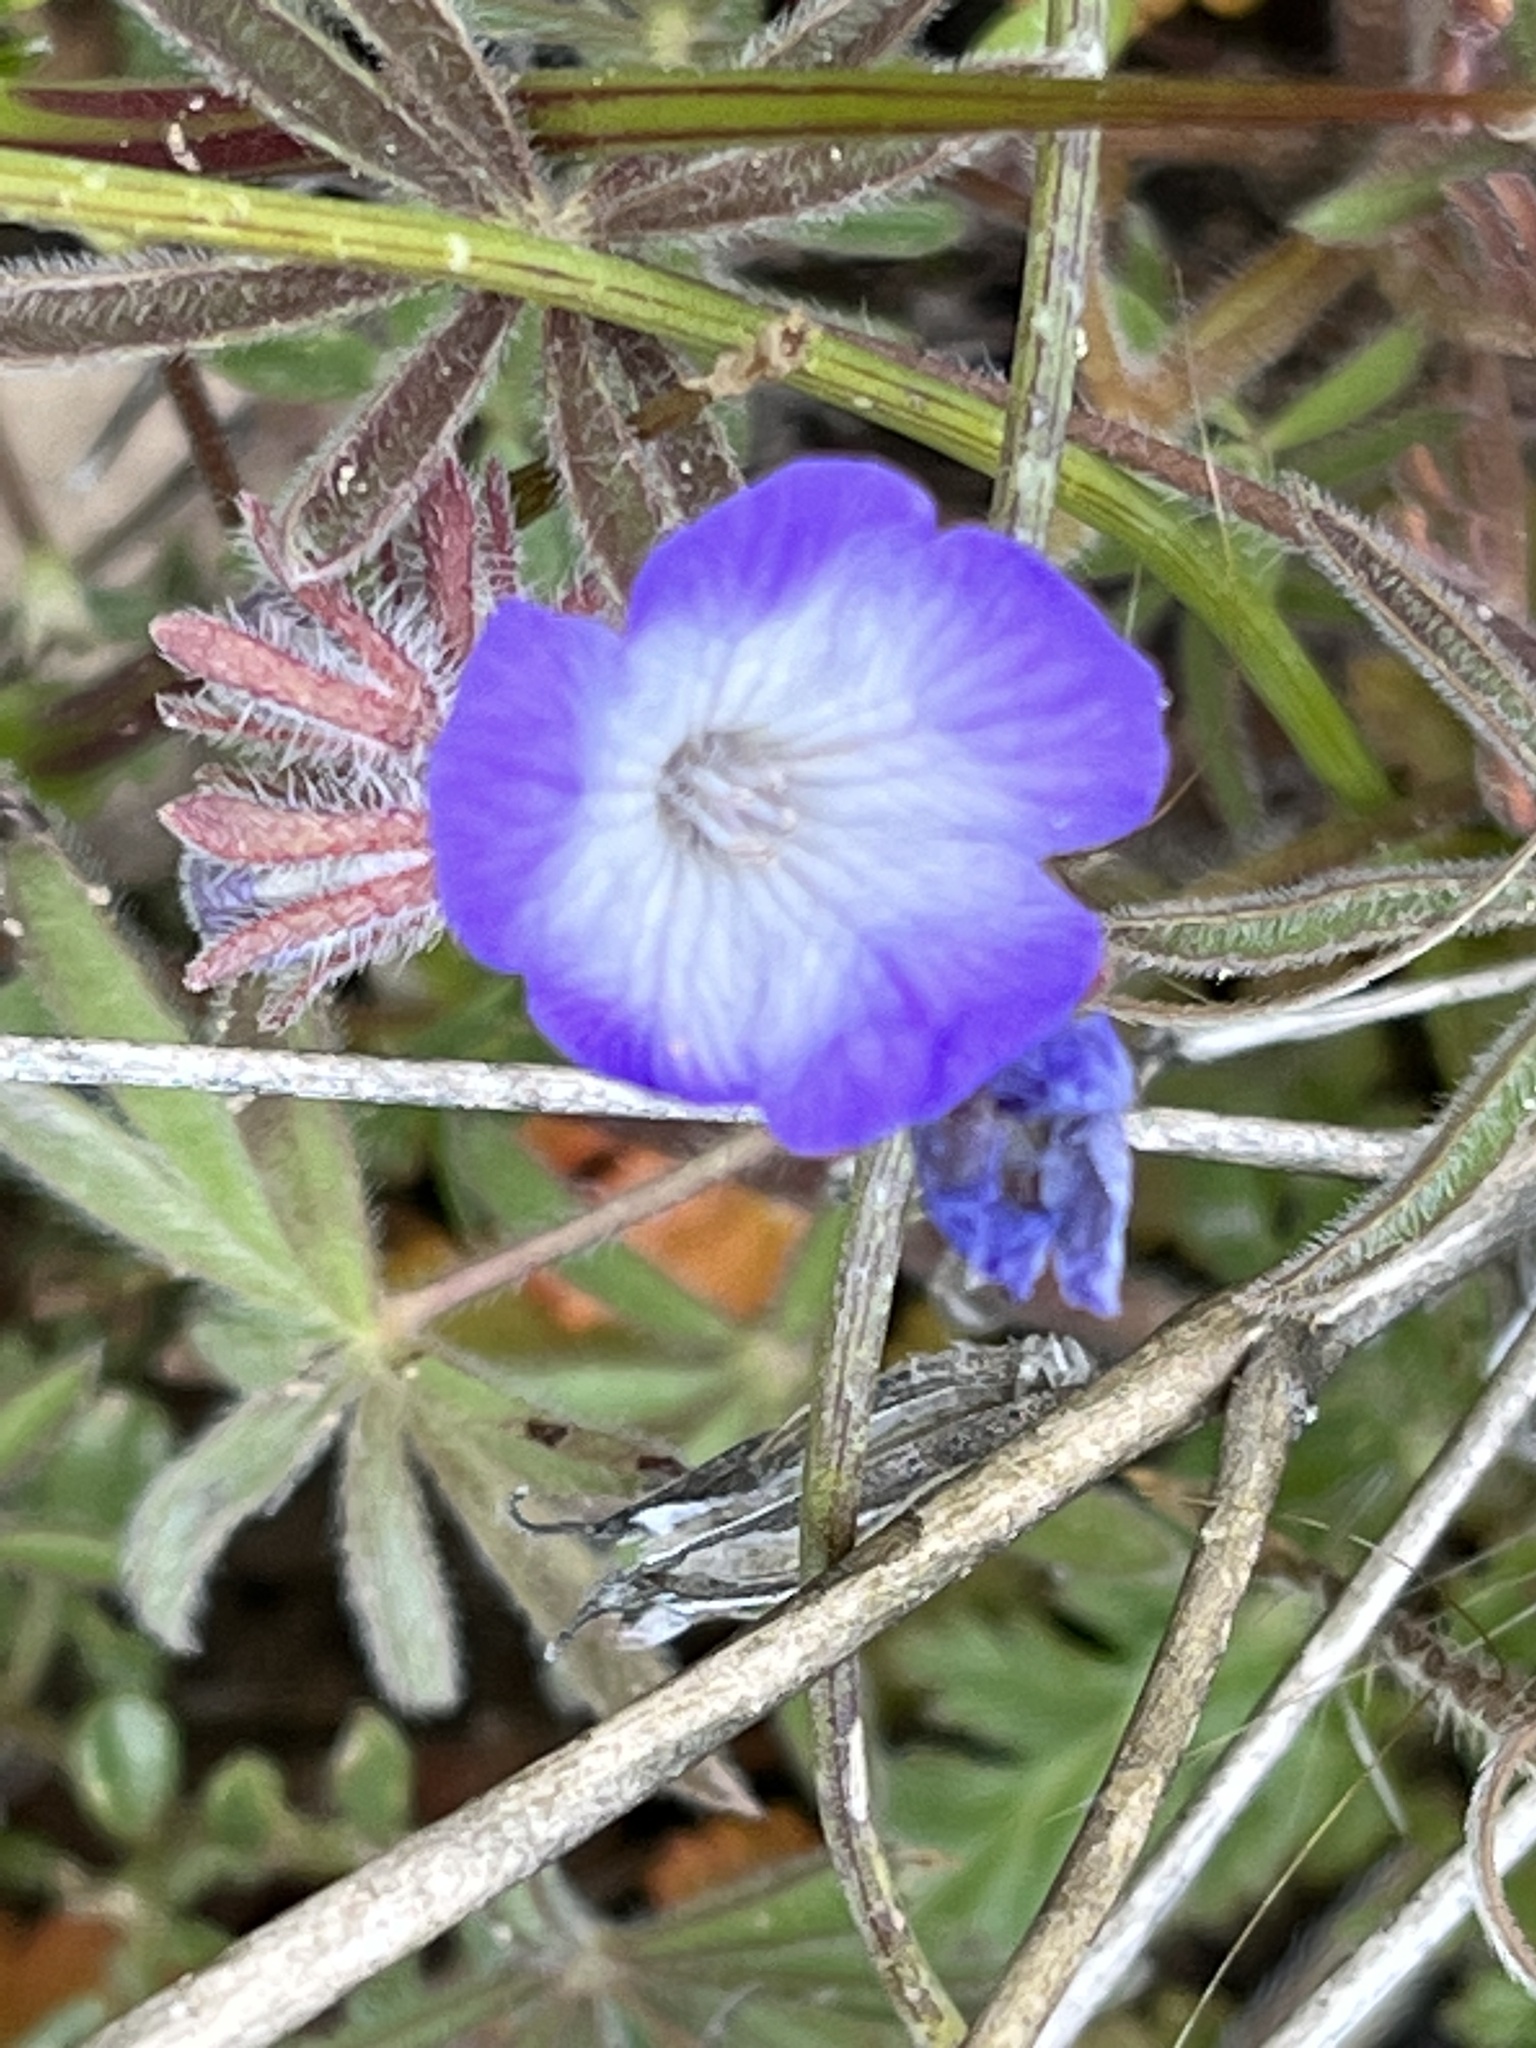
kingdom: Plantae
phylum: Tracheophyta
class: Magnoliopsida
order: Boraginales
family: Hydrophyllaceae
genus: Phacelia
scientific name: Phacelia douglasii
